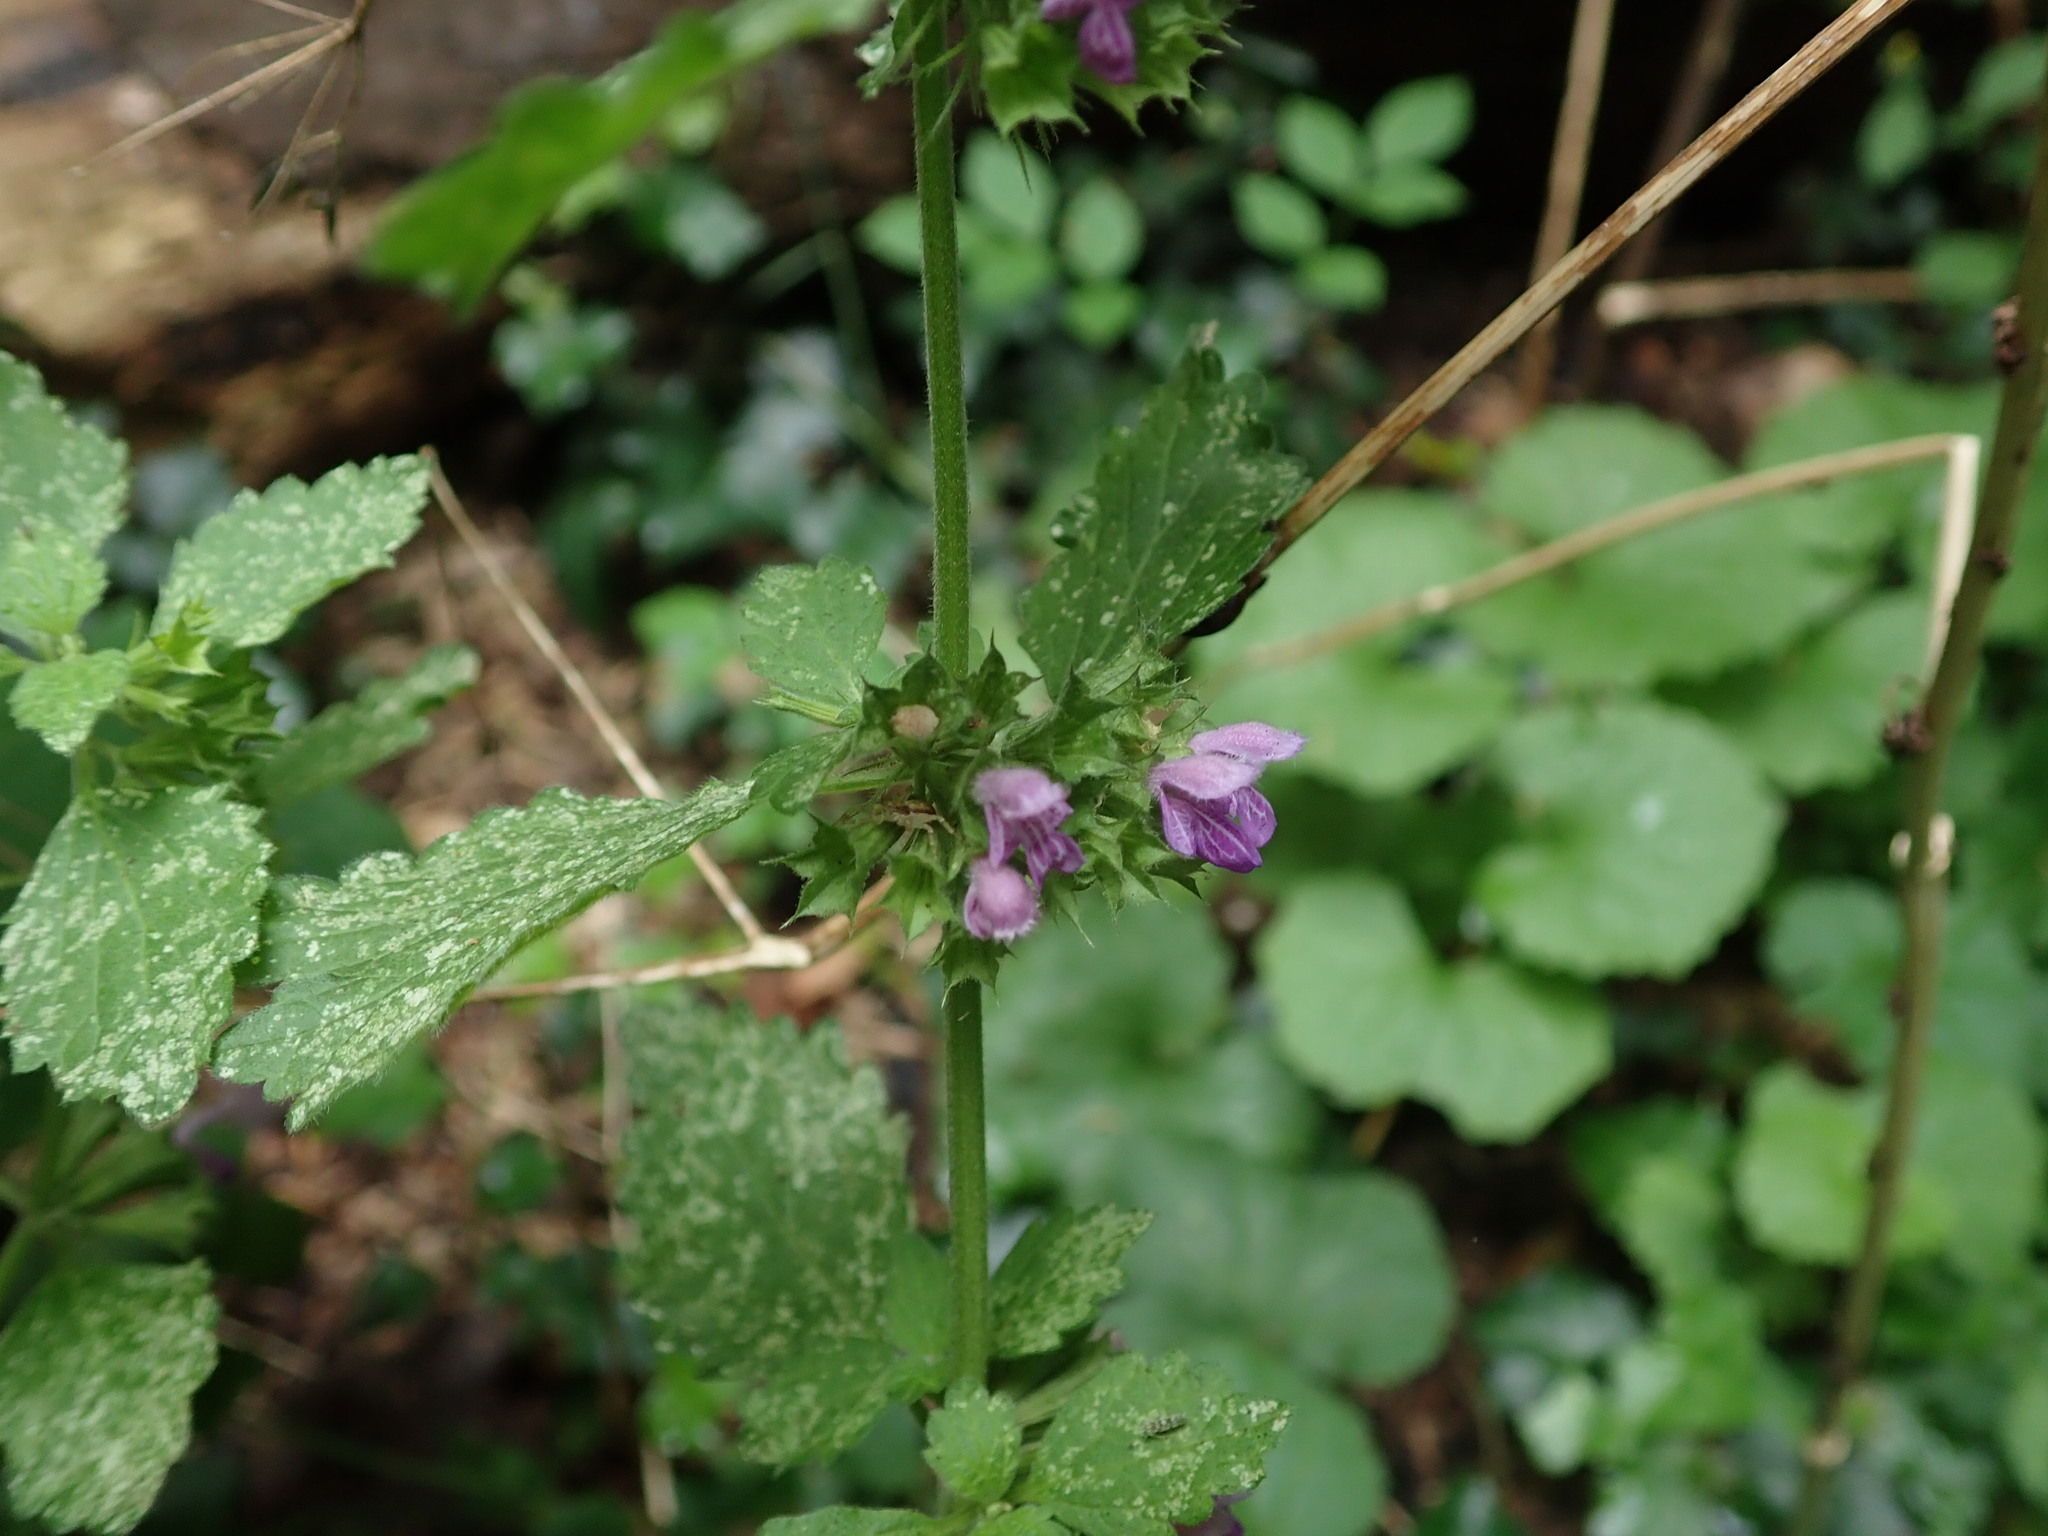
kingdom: Plantae
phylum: Tracheophyta
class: Magnoliopsida
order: Lamiales
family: Lamiaceae
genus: Ballota
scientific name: Ballota nigra
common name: Black horehound
